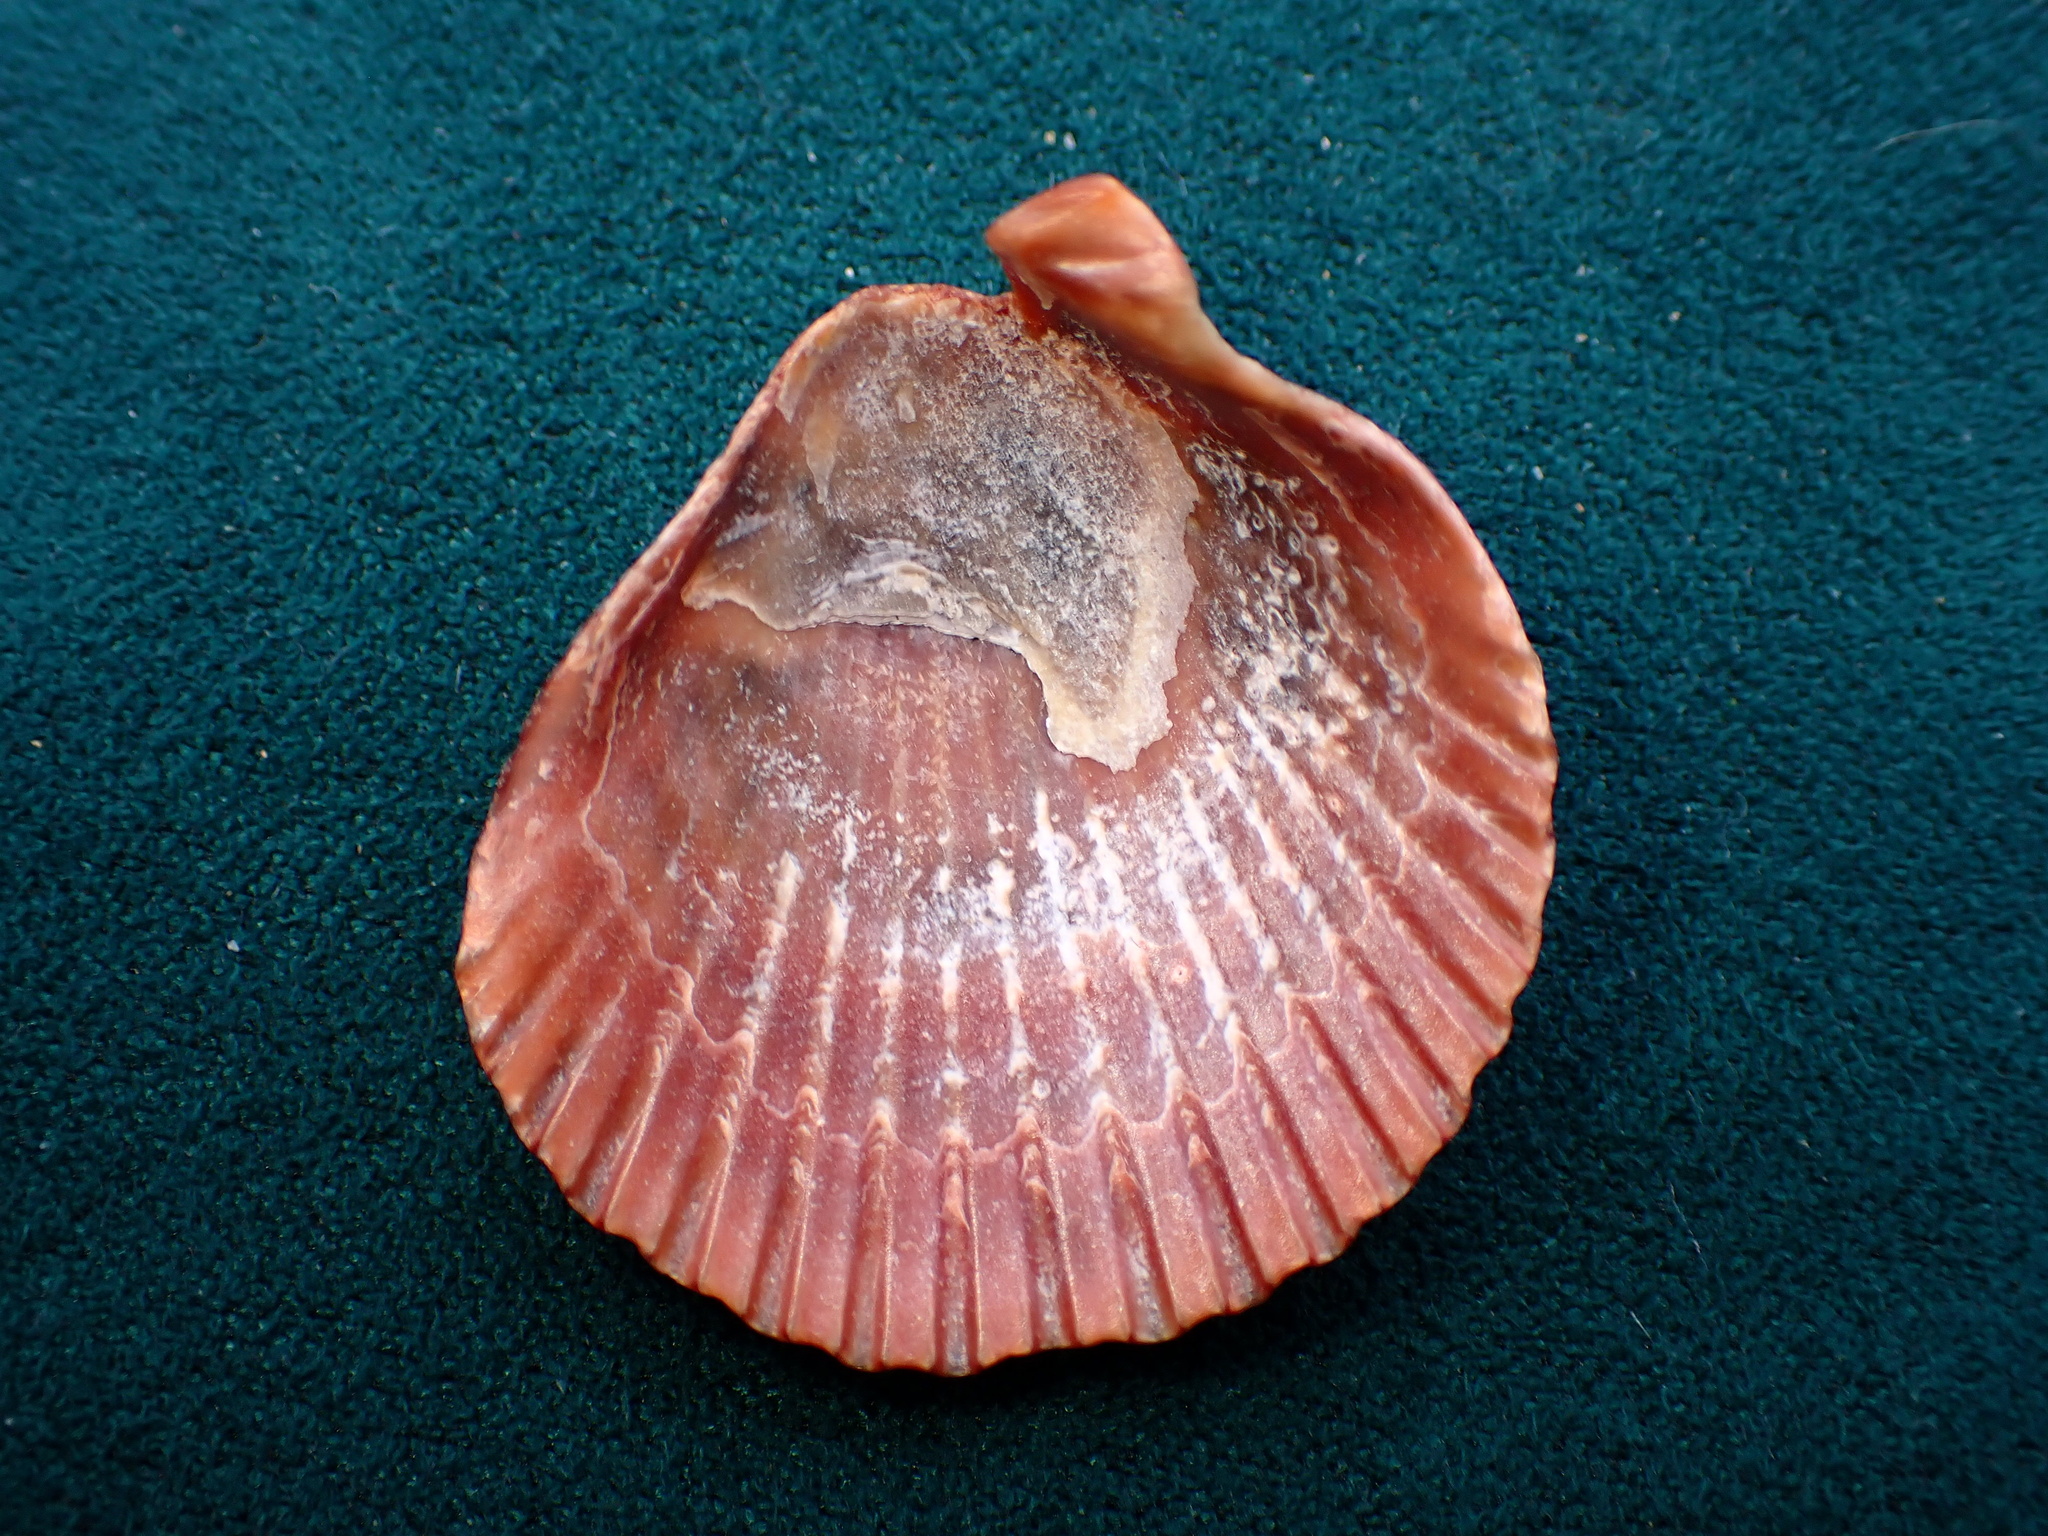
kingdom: Animalia
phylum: Mollusca
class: Bivalvia
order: Pectinida
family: Pectinidae
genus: Argopecten
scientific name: Argopecten ventricosus
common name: Catarina scallop
